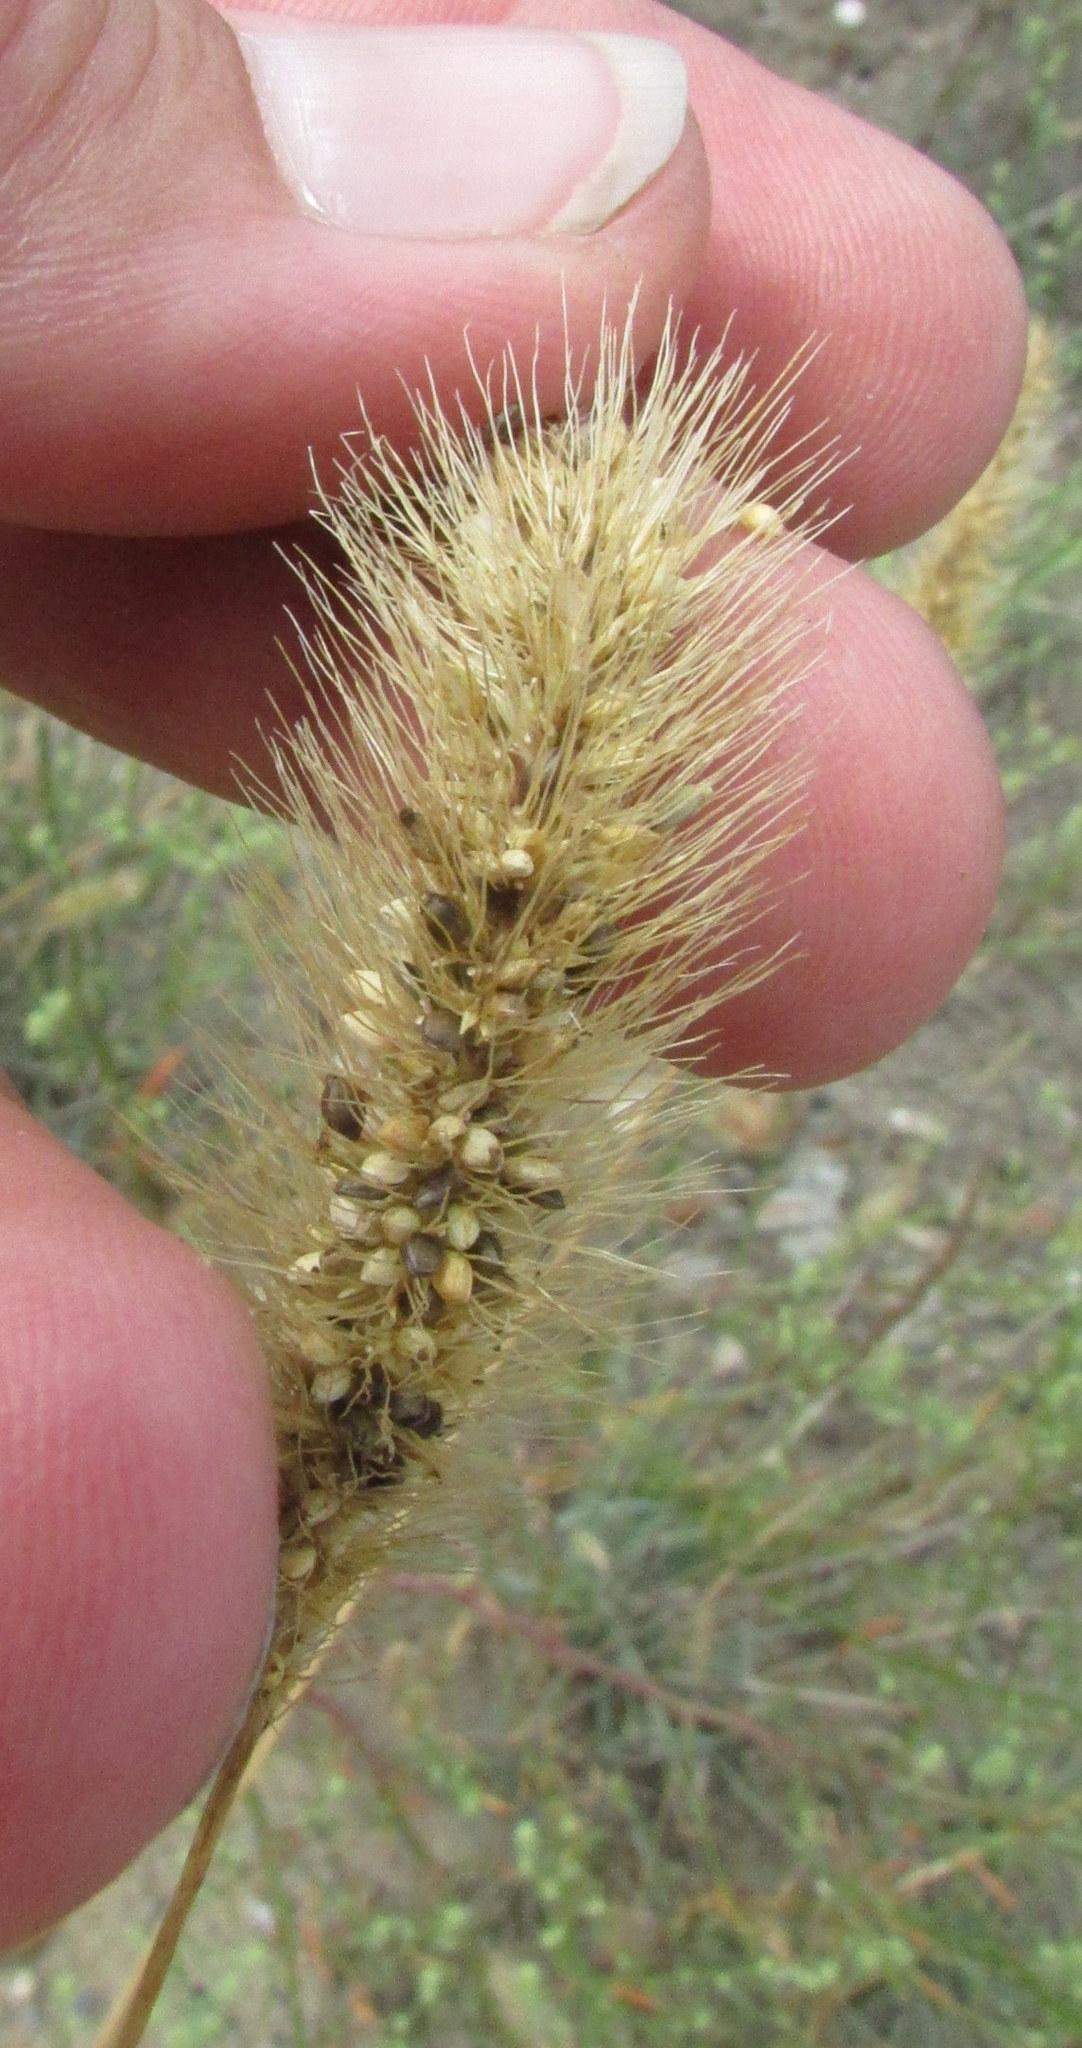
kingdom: Plantae
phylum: Tracheophyta
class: Liliopsida
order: Poales
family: Poaceae
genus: Setaria
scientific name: Setaria viridis
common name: Green bristlegrass
